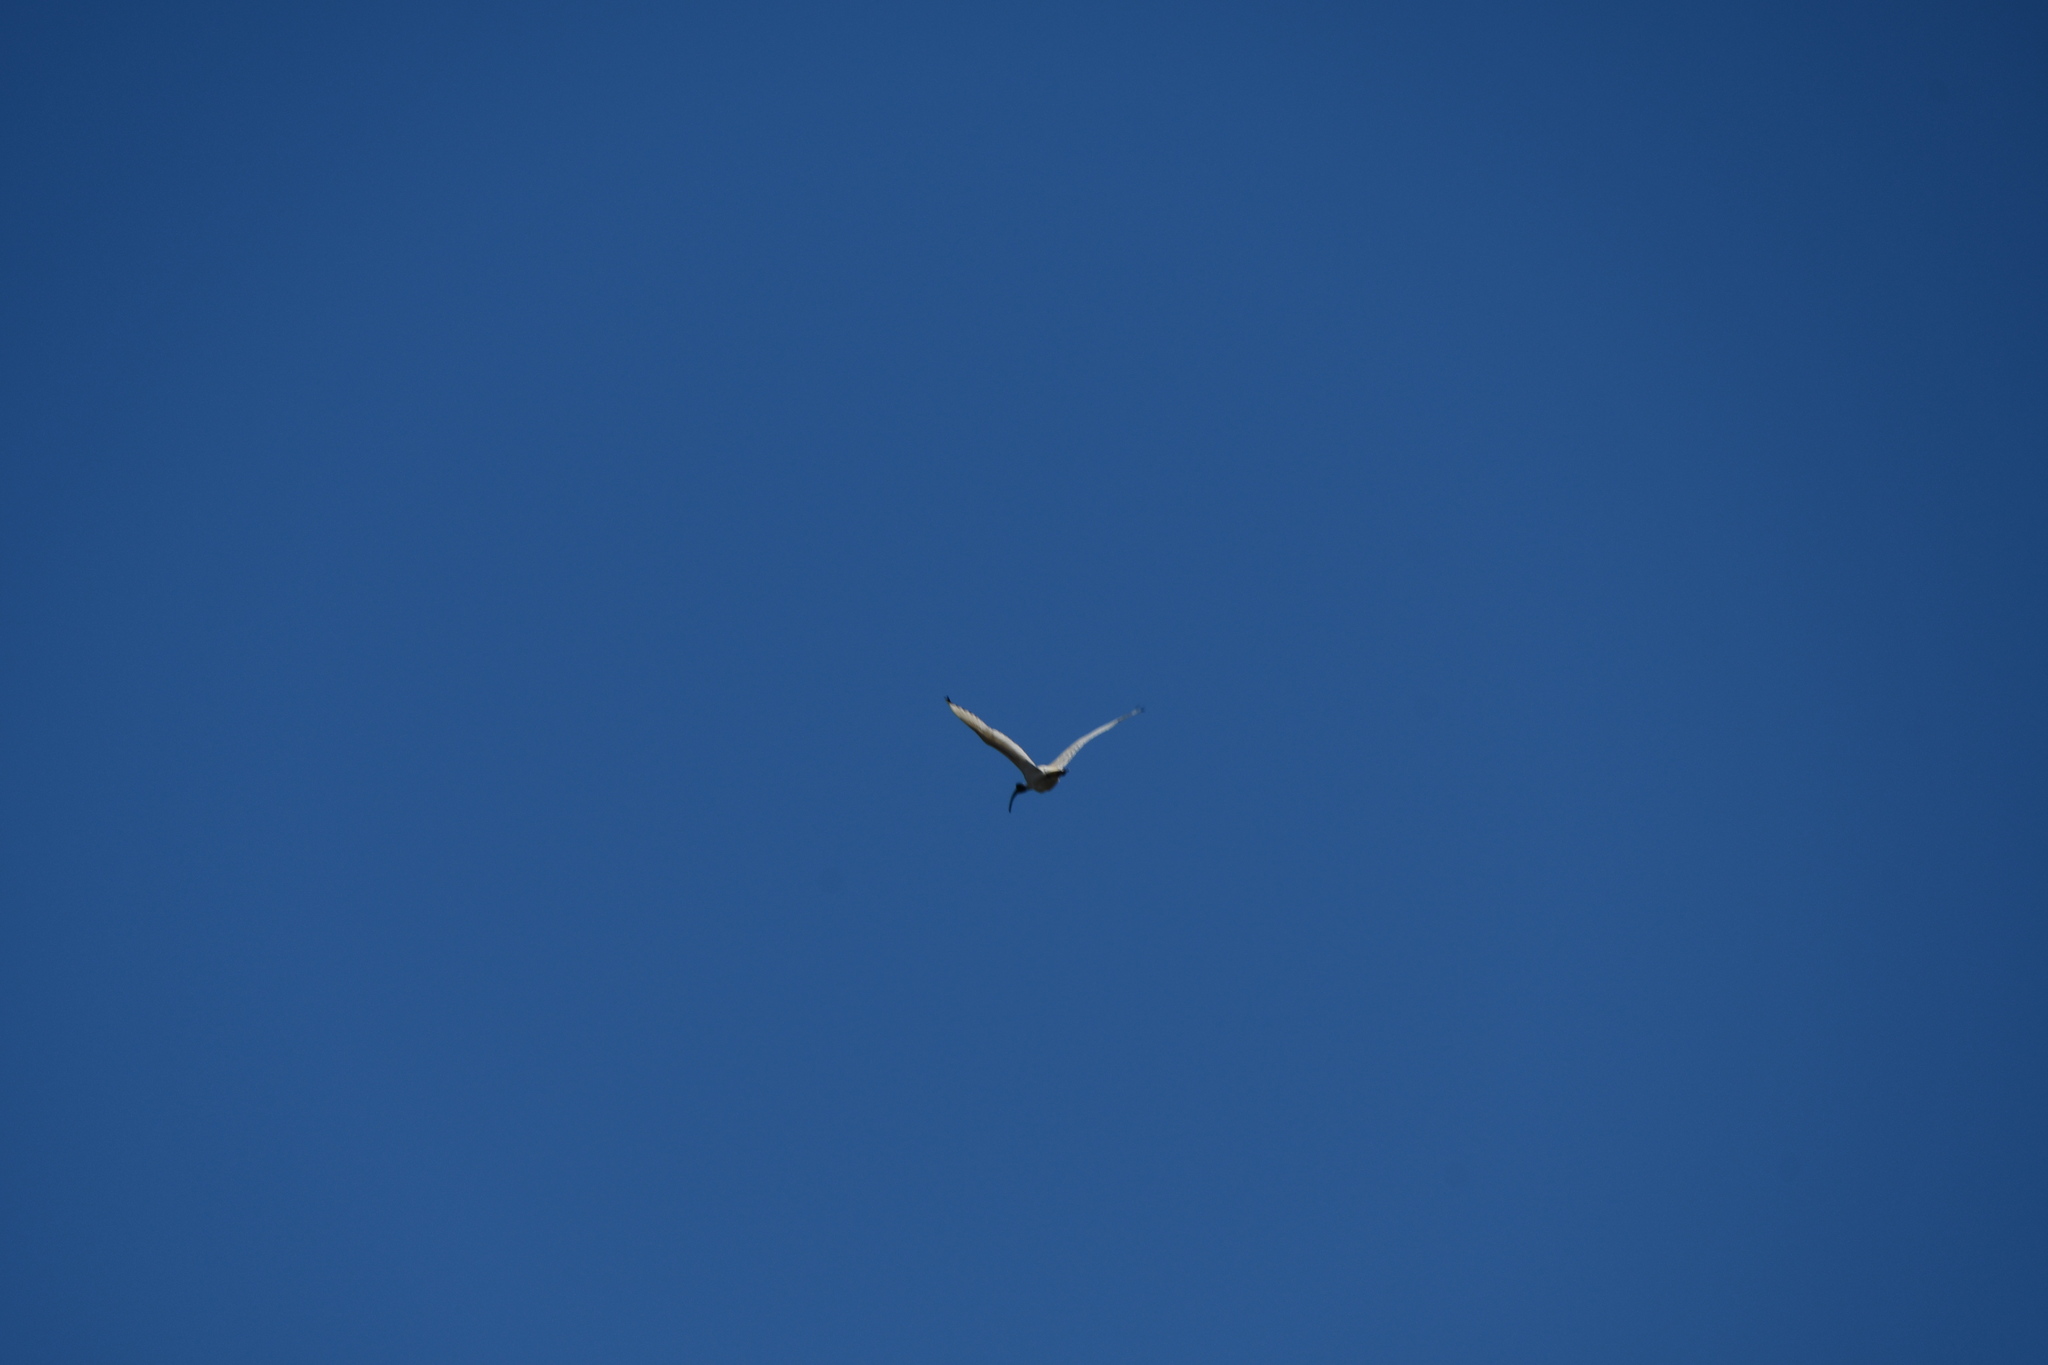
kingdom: Animalia
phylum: Chordata
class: Aves
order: Pelecaniformes
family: Threskiornithidae
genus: Threskiornis
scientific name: Threskiornis molucca
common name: Australian white ibis
